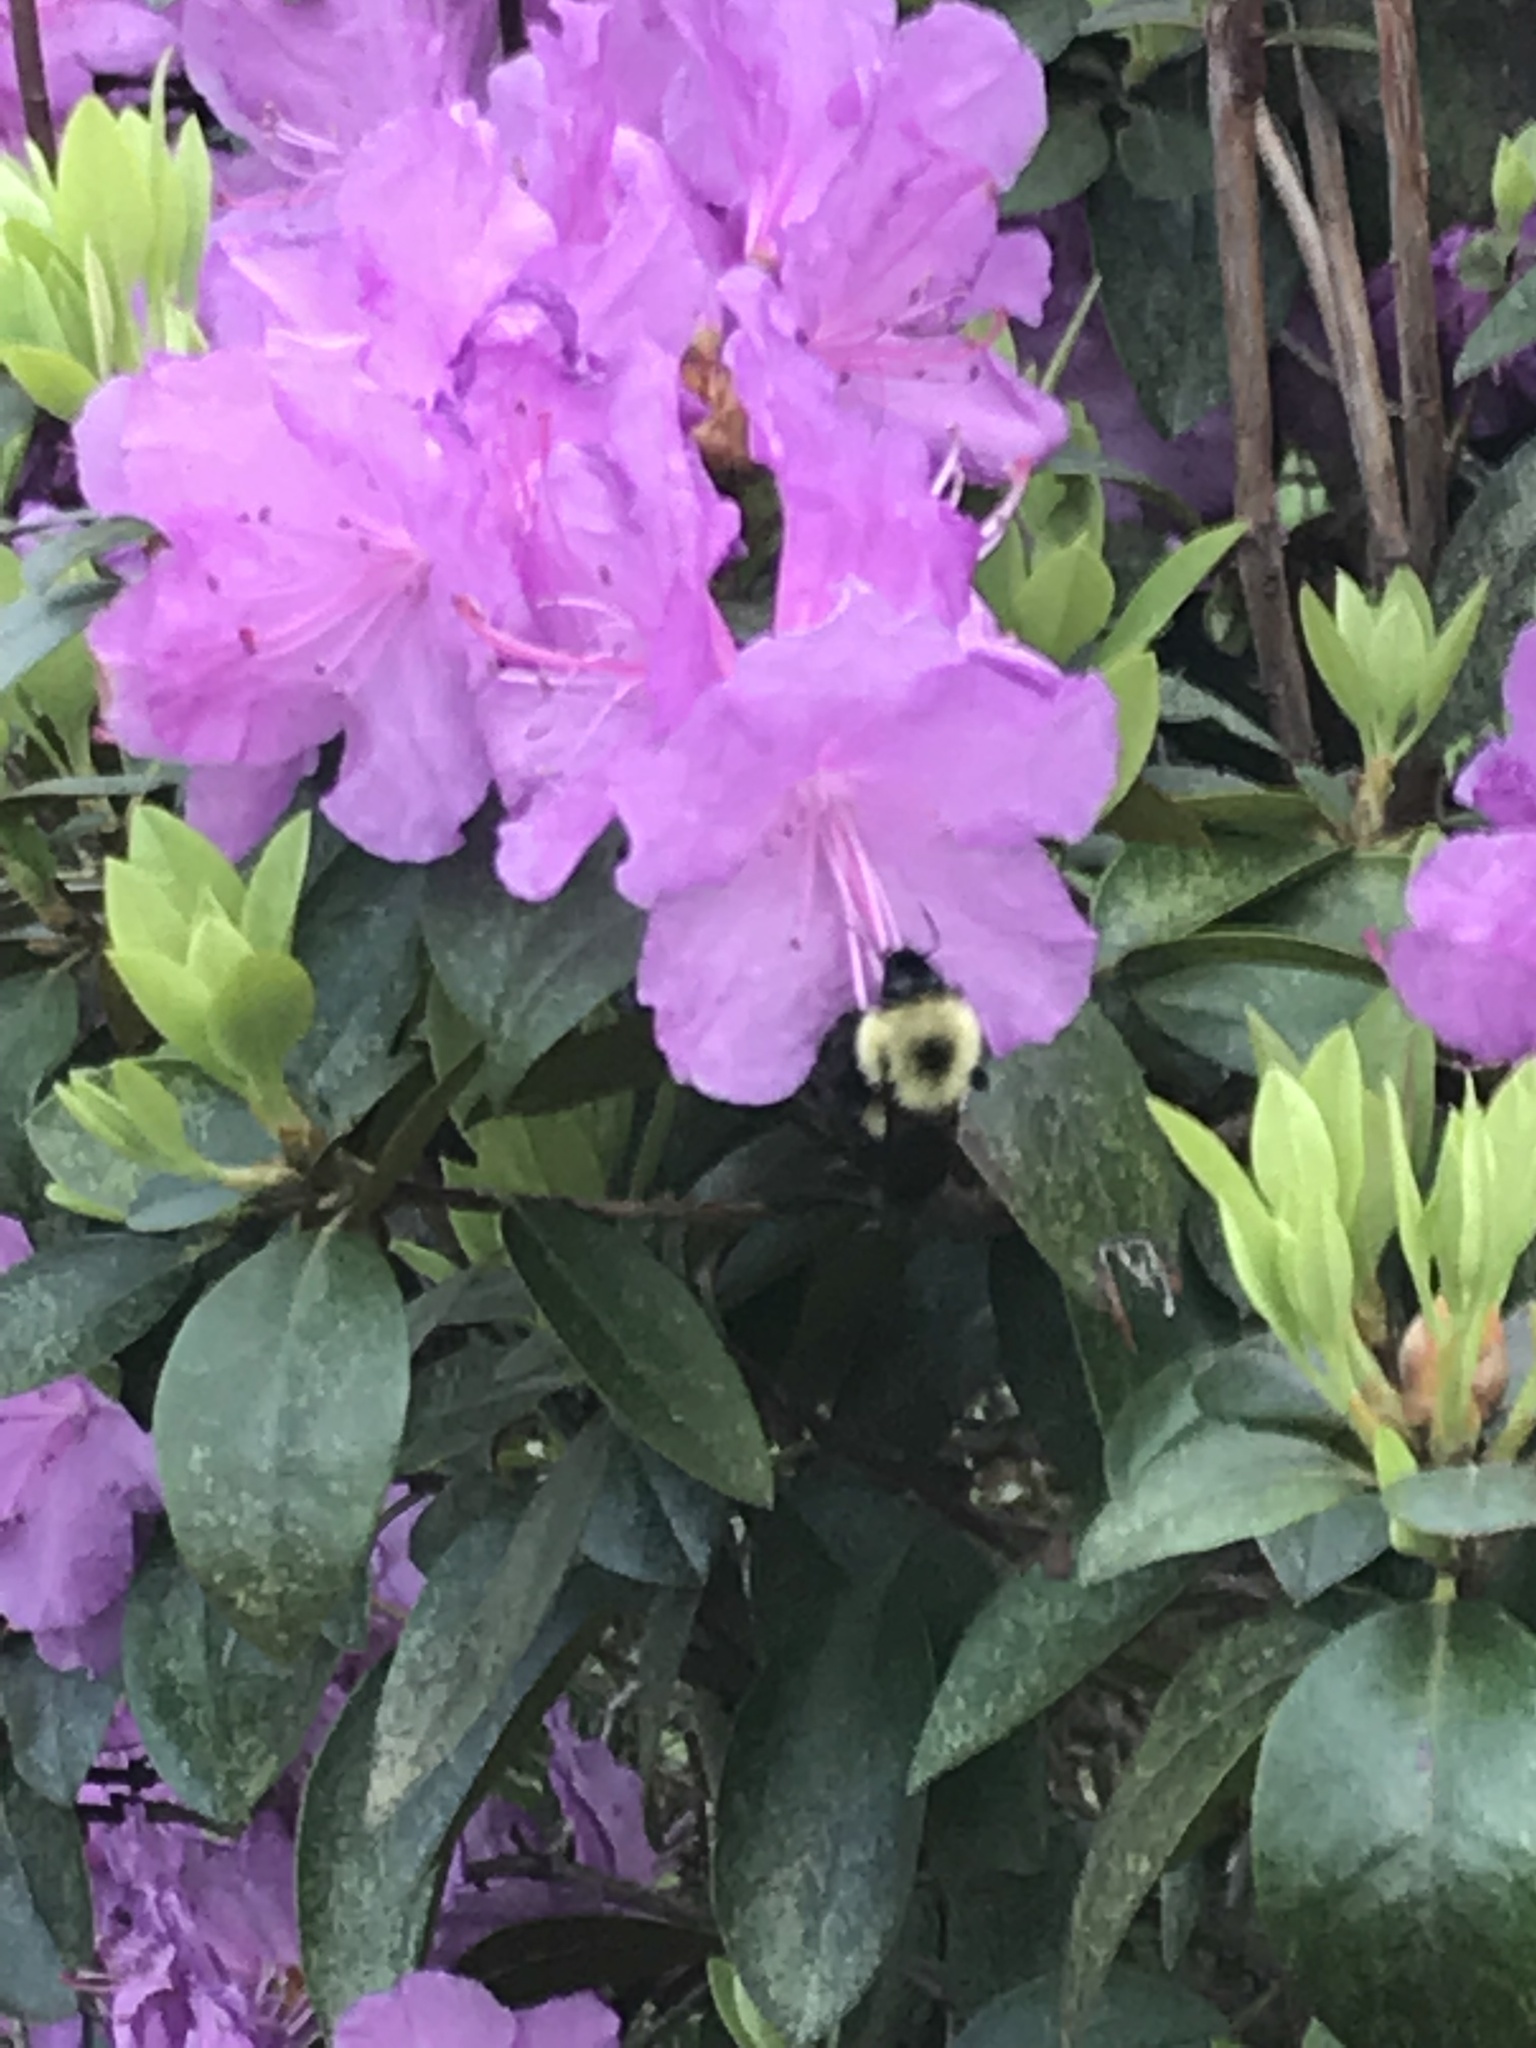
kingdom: Animalia
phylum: Arthropoda
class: Insecta
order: Hymenoptera
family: Apidae
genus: Bombus
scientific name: Bombus bimaculatus
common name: Two-spotted bumble bee
